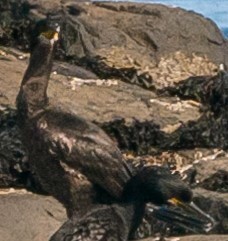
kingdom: Animalia
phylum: Chordata
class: Aves
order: Suliformes
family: Phalacrocoracidae
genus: Phalacrocorax
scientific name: Phalacrocorax aristotelis
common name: European shag
